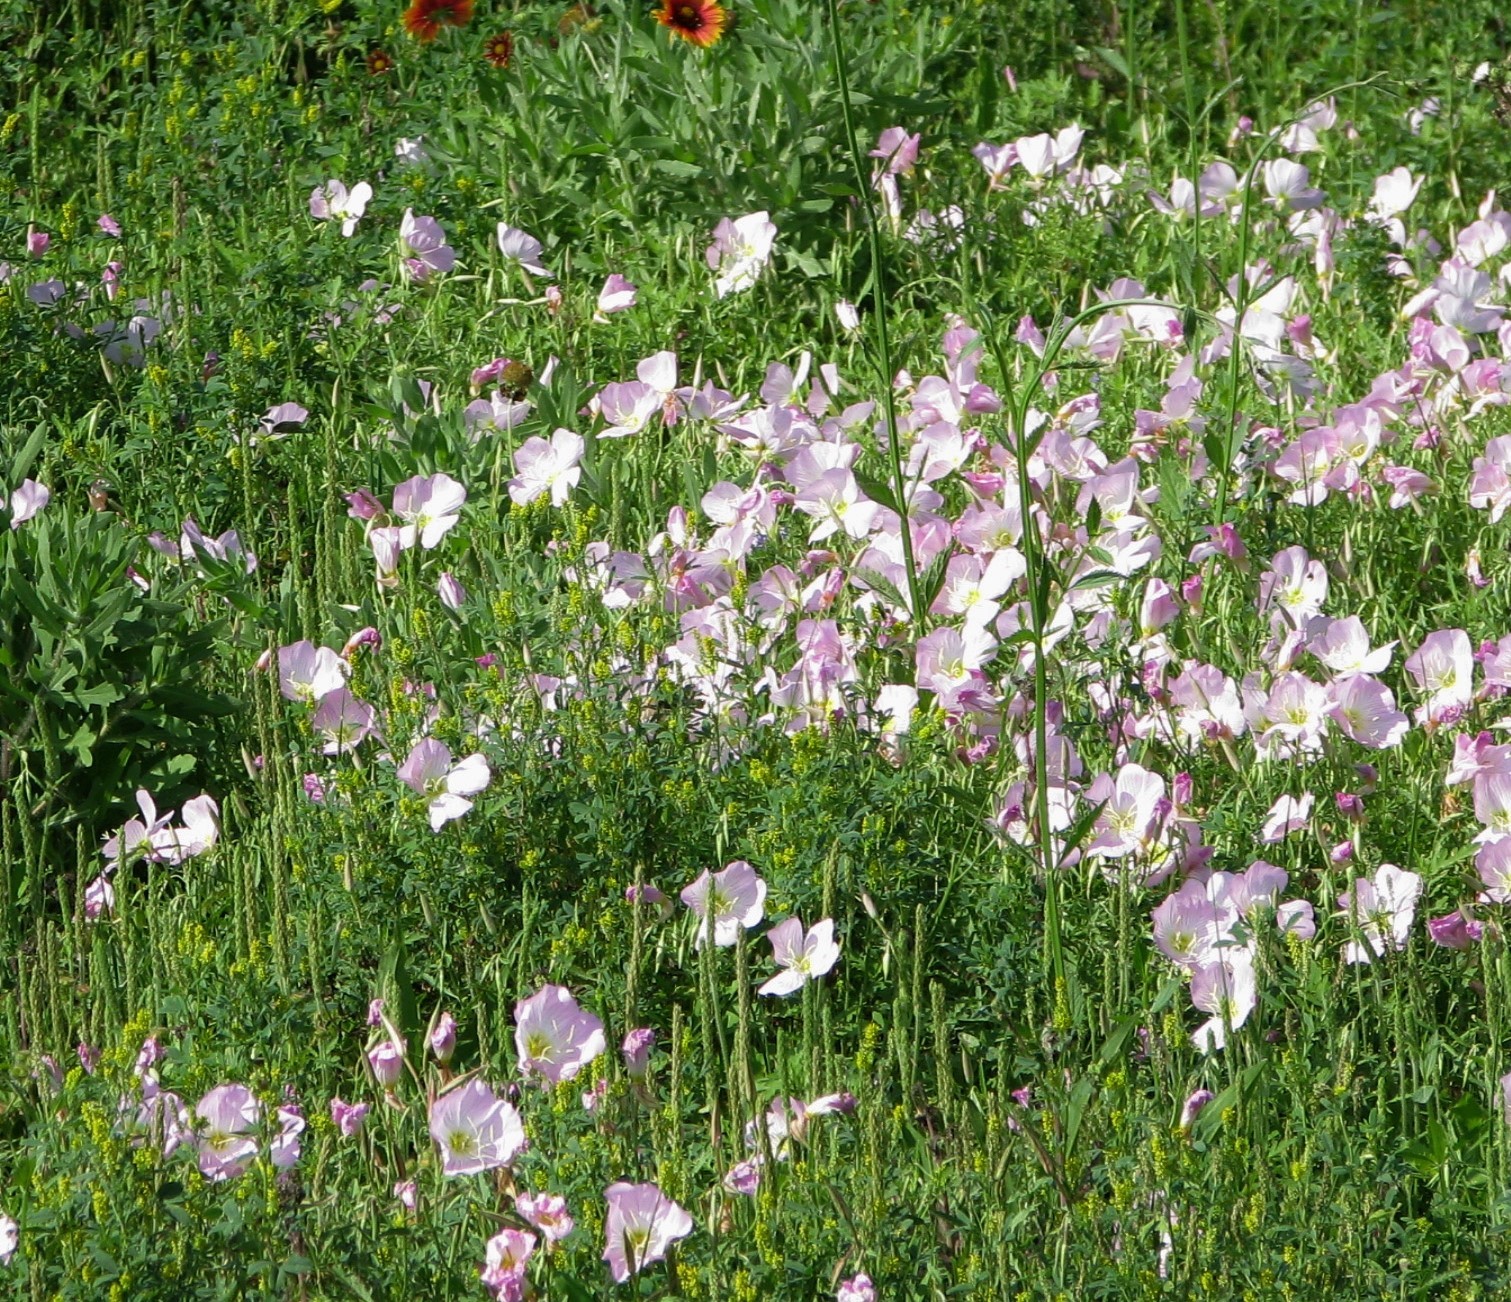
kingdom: Plantae
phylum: Tracheophyta
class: Magnoliopsida
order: Myrtales
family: Onagraceae
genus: Oenothera
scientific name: Oenothera speciosa
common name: White evening-primrose
